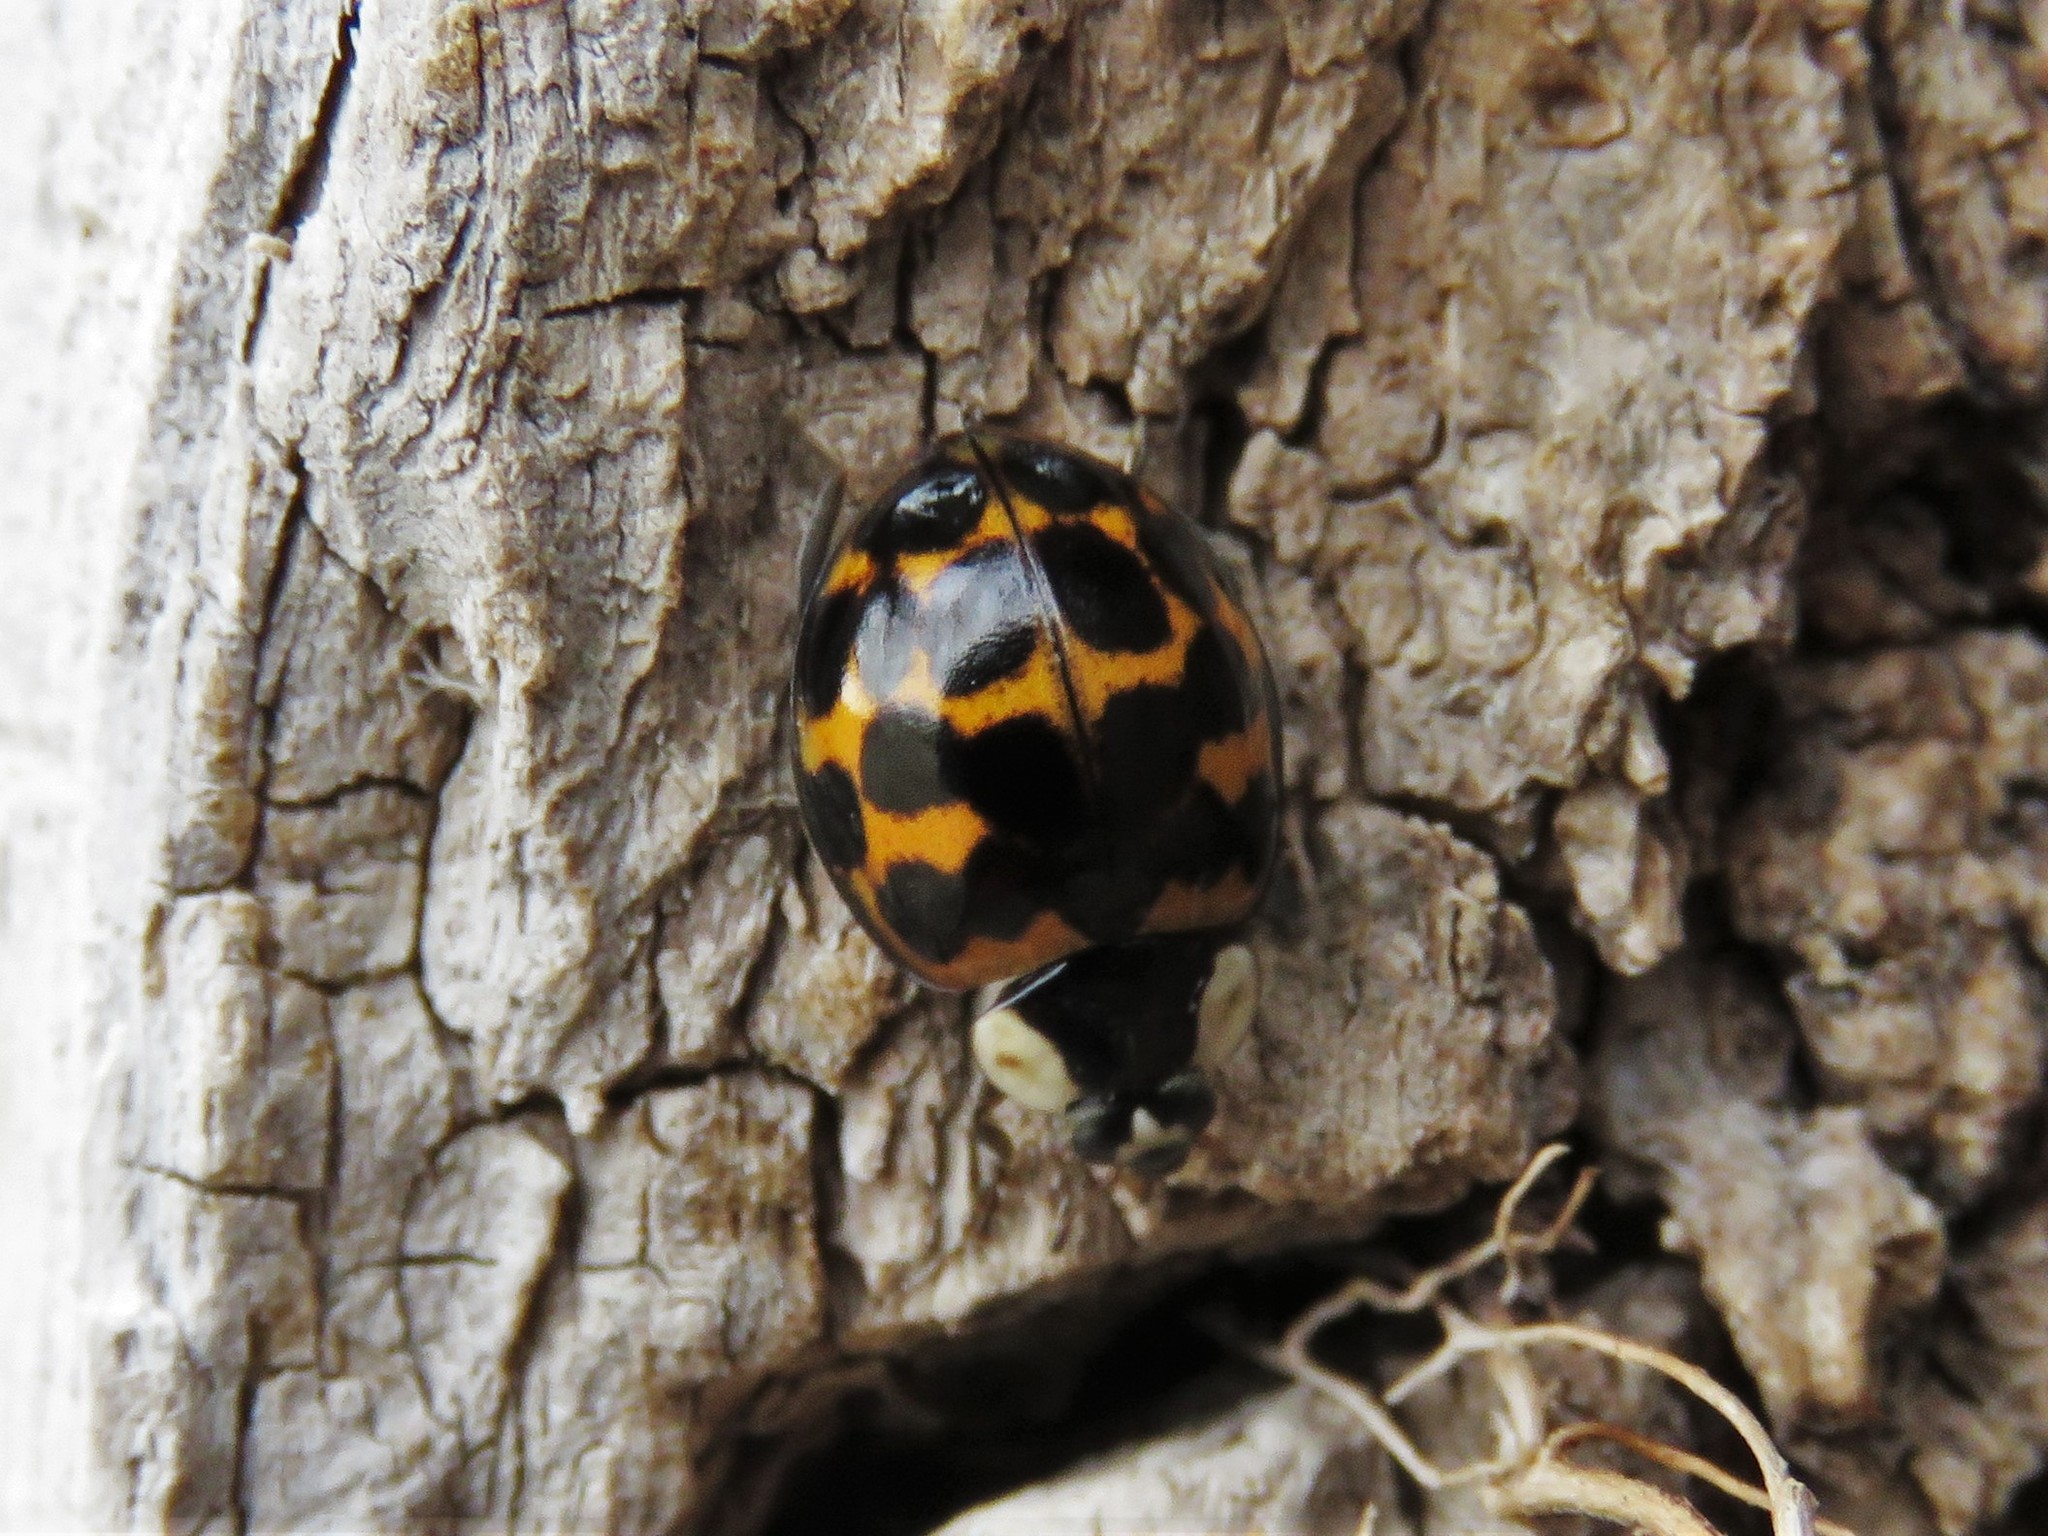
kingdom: Animalia
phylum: Arthropoda
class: Insecta
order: Coleoptera
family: Coccinellidae
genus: Harmonia
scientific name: Harmonia axyridis
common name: Harlequin ladybird
